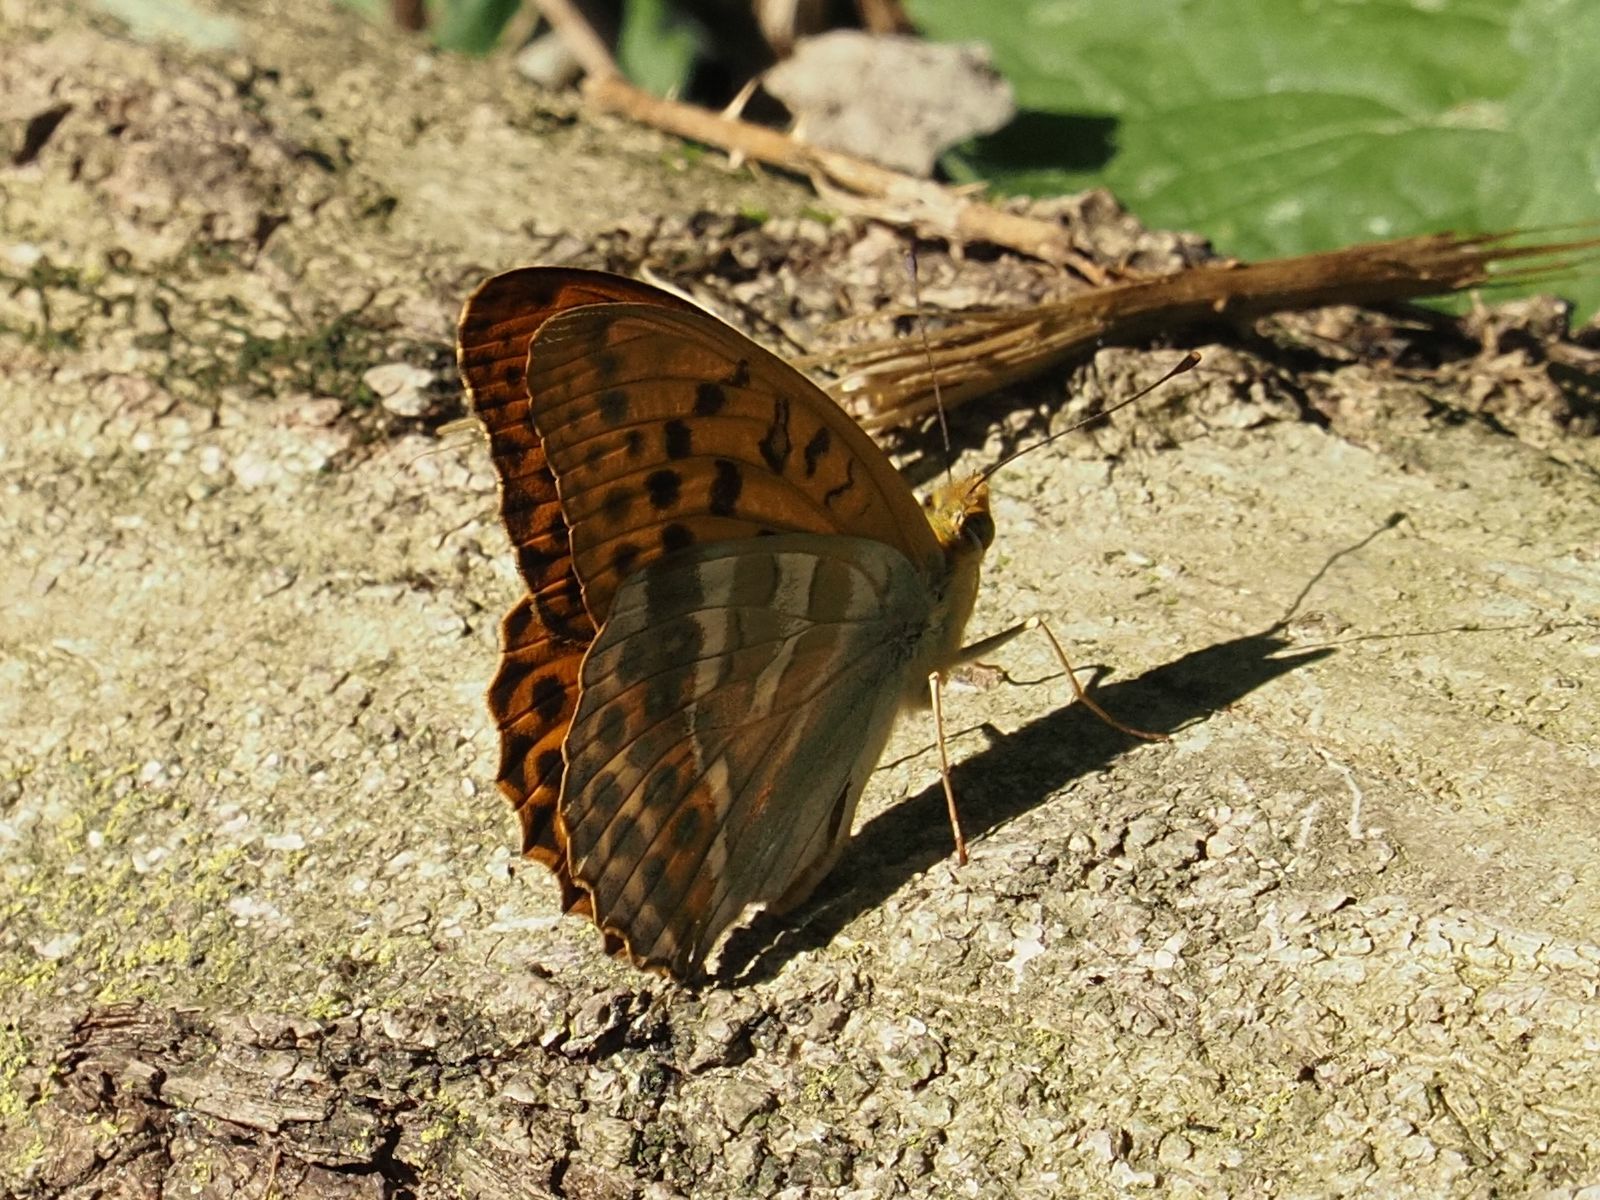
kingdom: Animalia
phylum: Arthropoda
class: Insecta
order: Lepidoptera
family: Nymphalidae
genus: Argynnis
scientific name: Argynnis paphia
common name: Silver-washed fritillary
